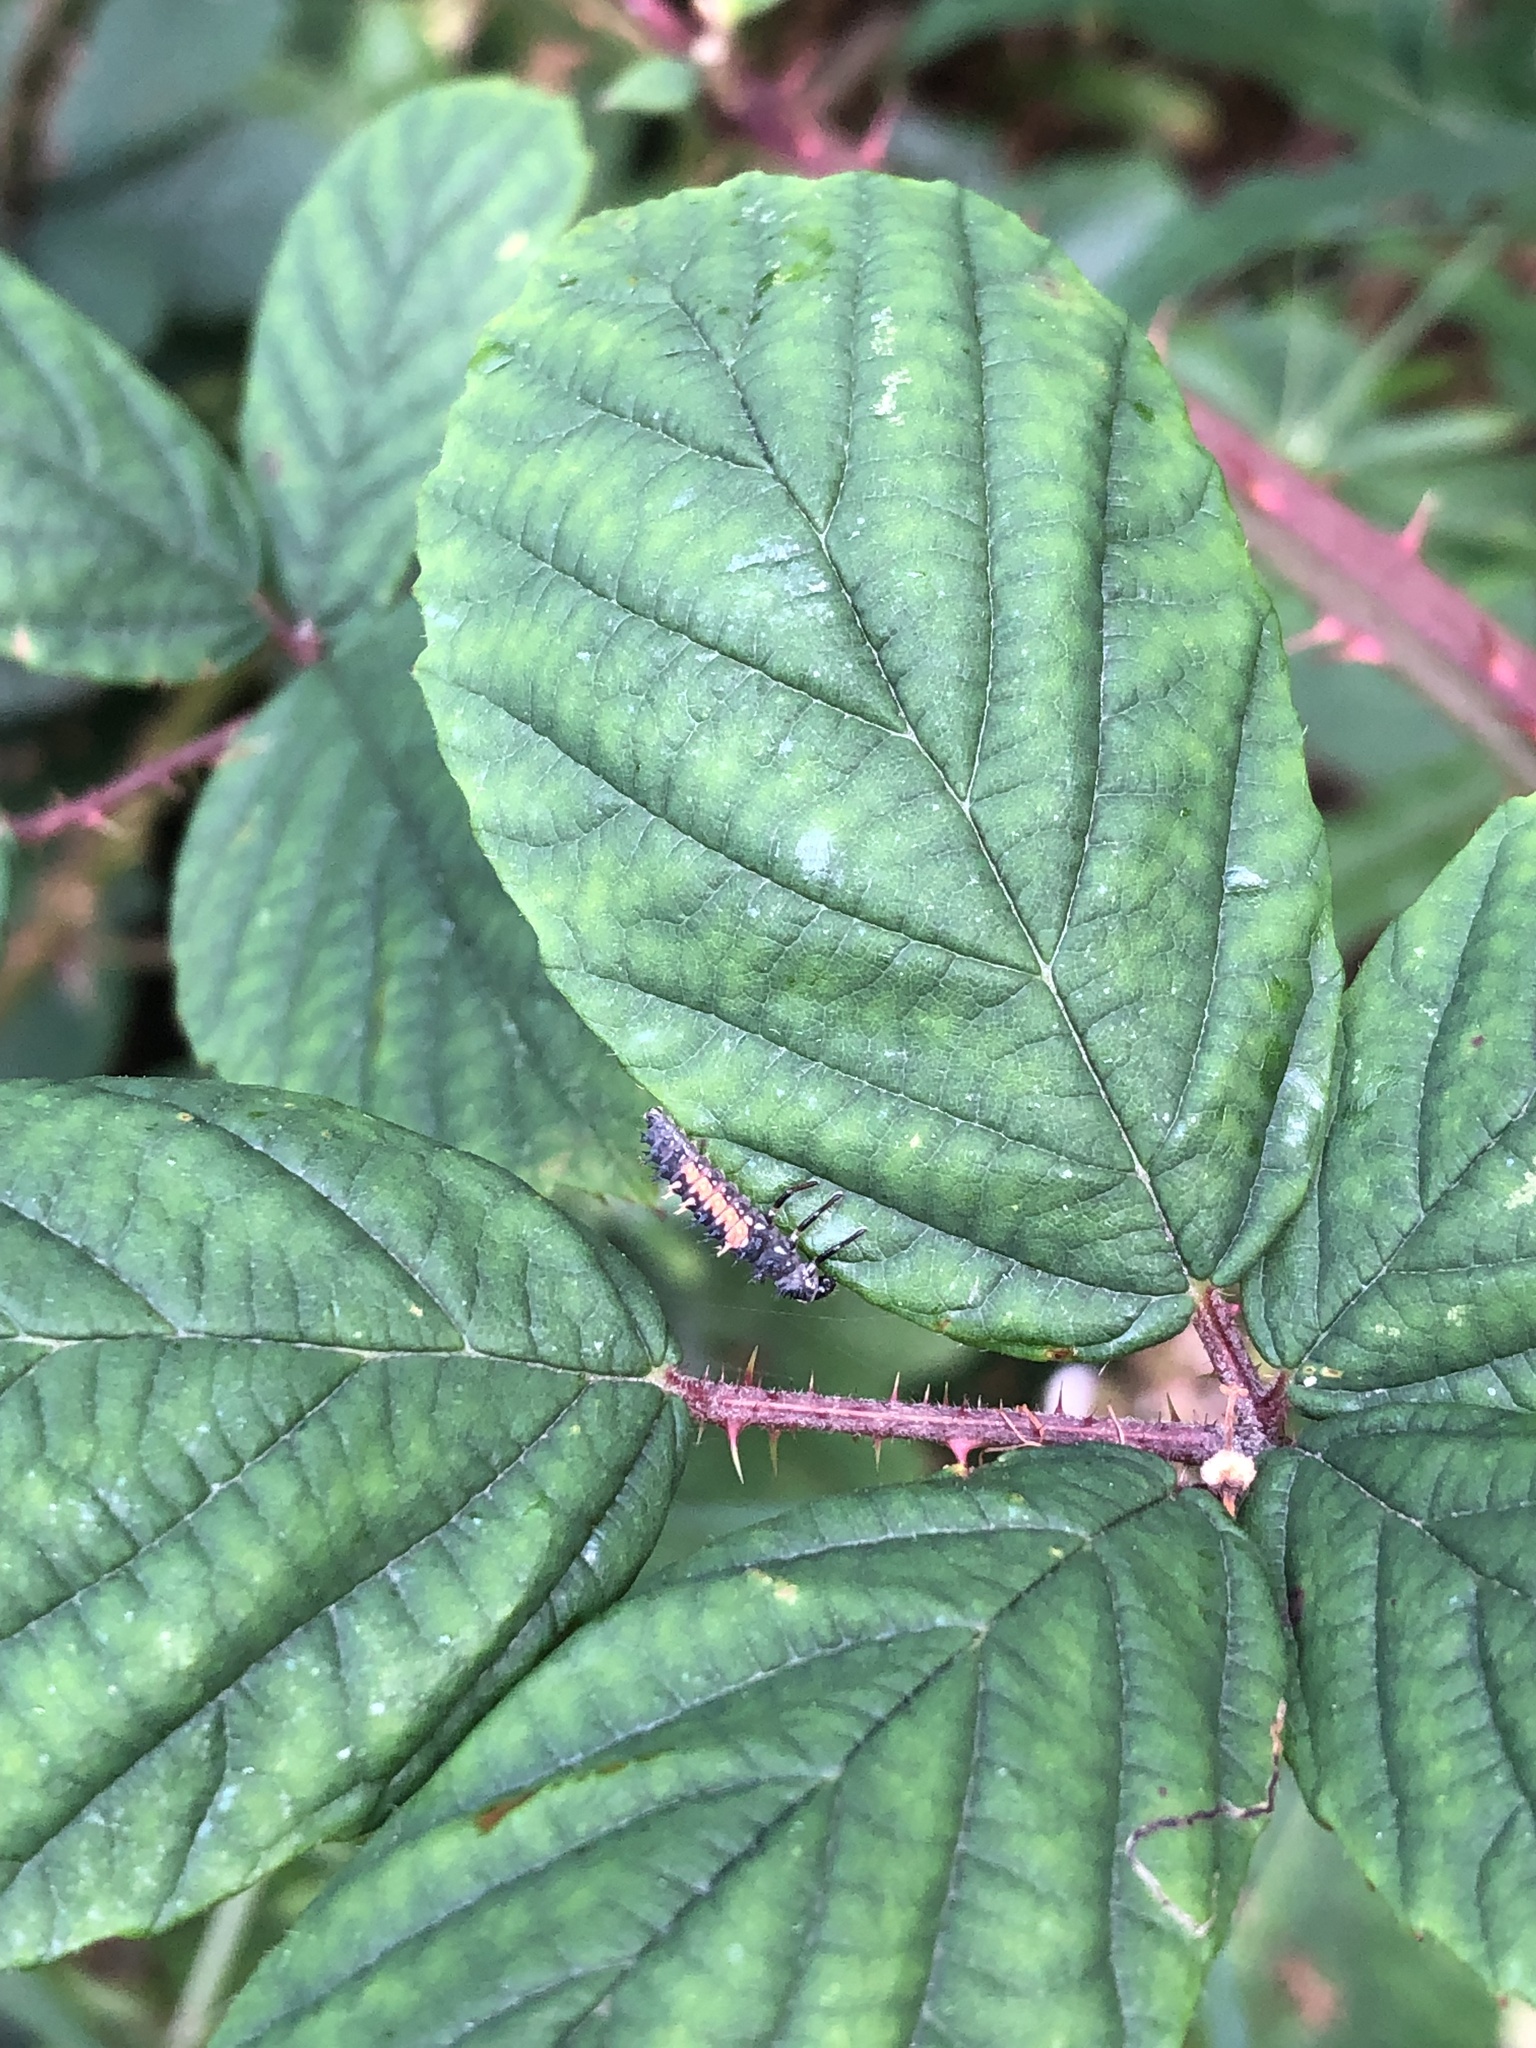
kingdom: Animalia
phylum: Arthropoda
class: Insecta
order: Coleoptera
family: Coccinellidae
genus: Harmonia
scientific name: Harmonia axyridis
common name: Harlequin ladybird
